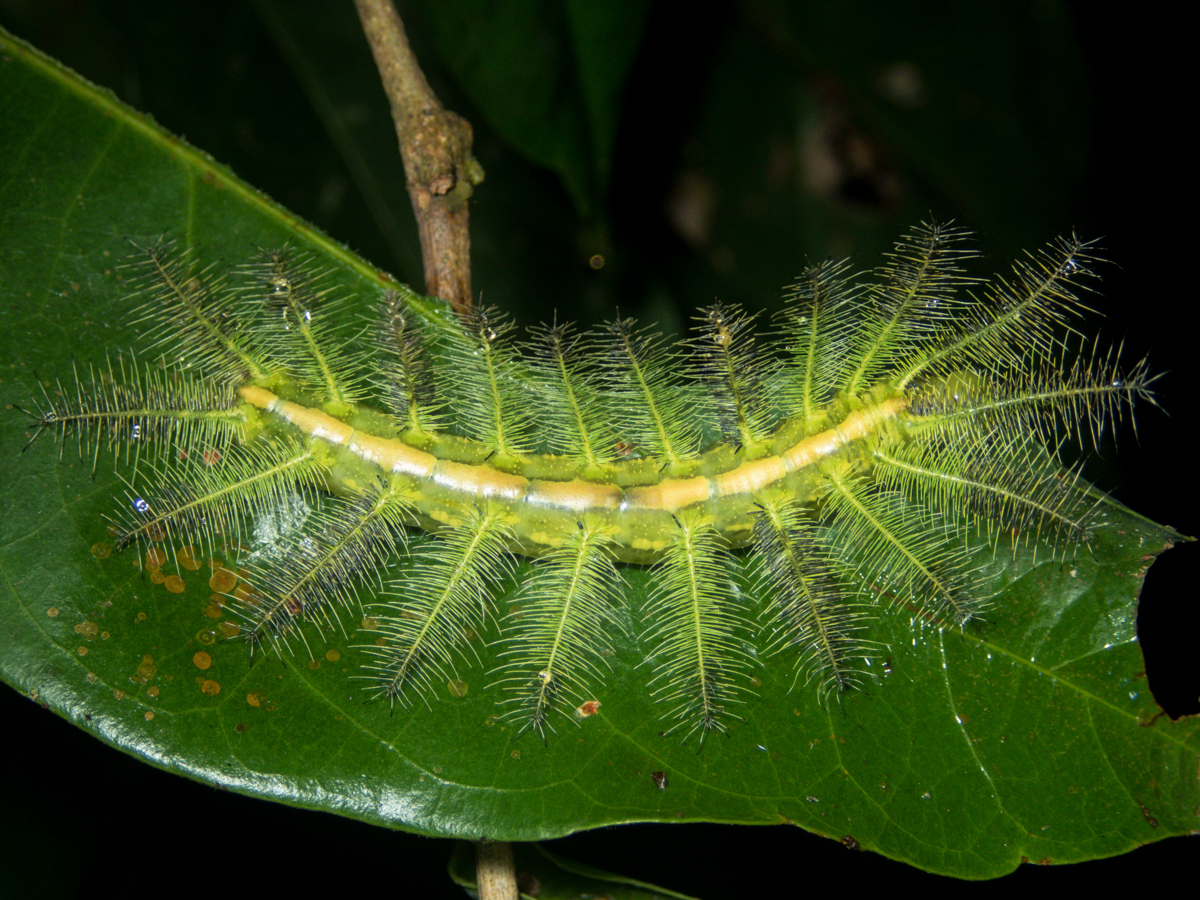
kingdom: Animalia
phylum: Arthropoda
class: Insecta
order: Lepidoptera
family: Nymphalidae
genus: Euthalia
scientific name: Euthalia anosia
